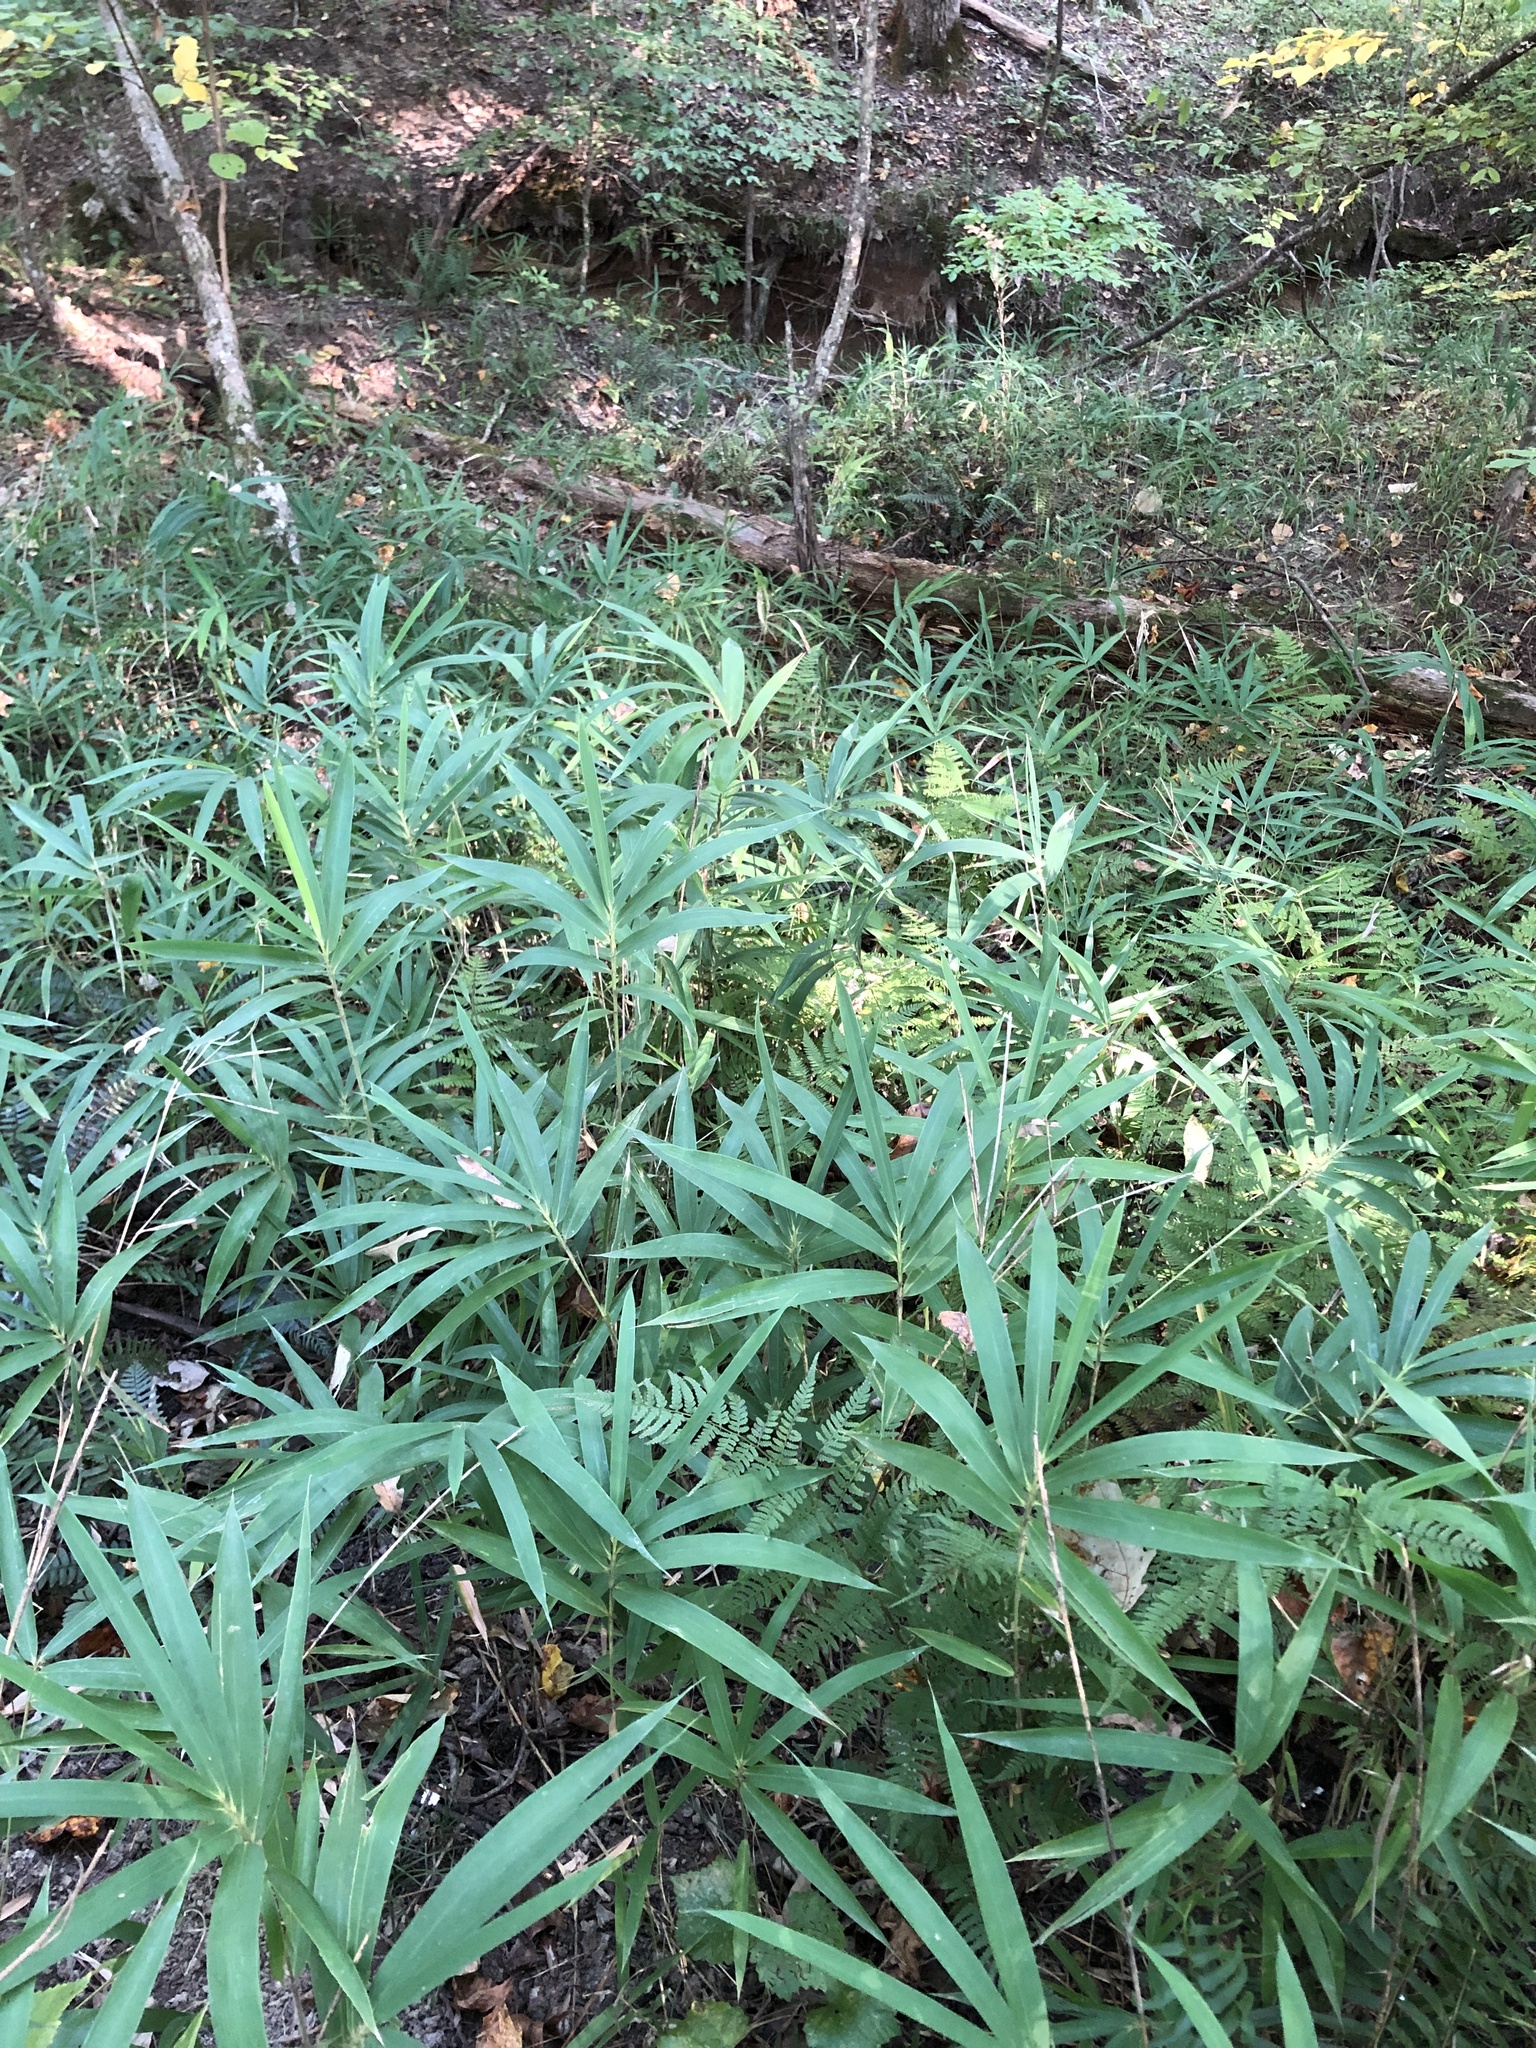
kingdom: Plantae
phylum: Tracheophyta
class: Liliopsida
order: Poales
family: Poaceae
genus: Arundinaria
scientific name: Arundinaria tecta
